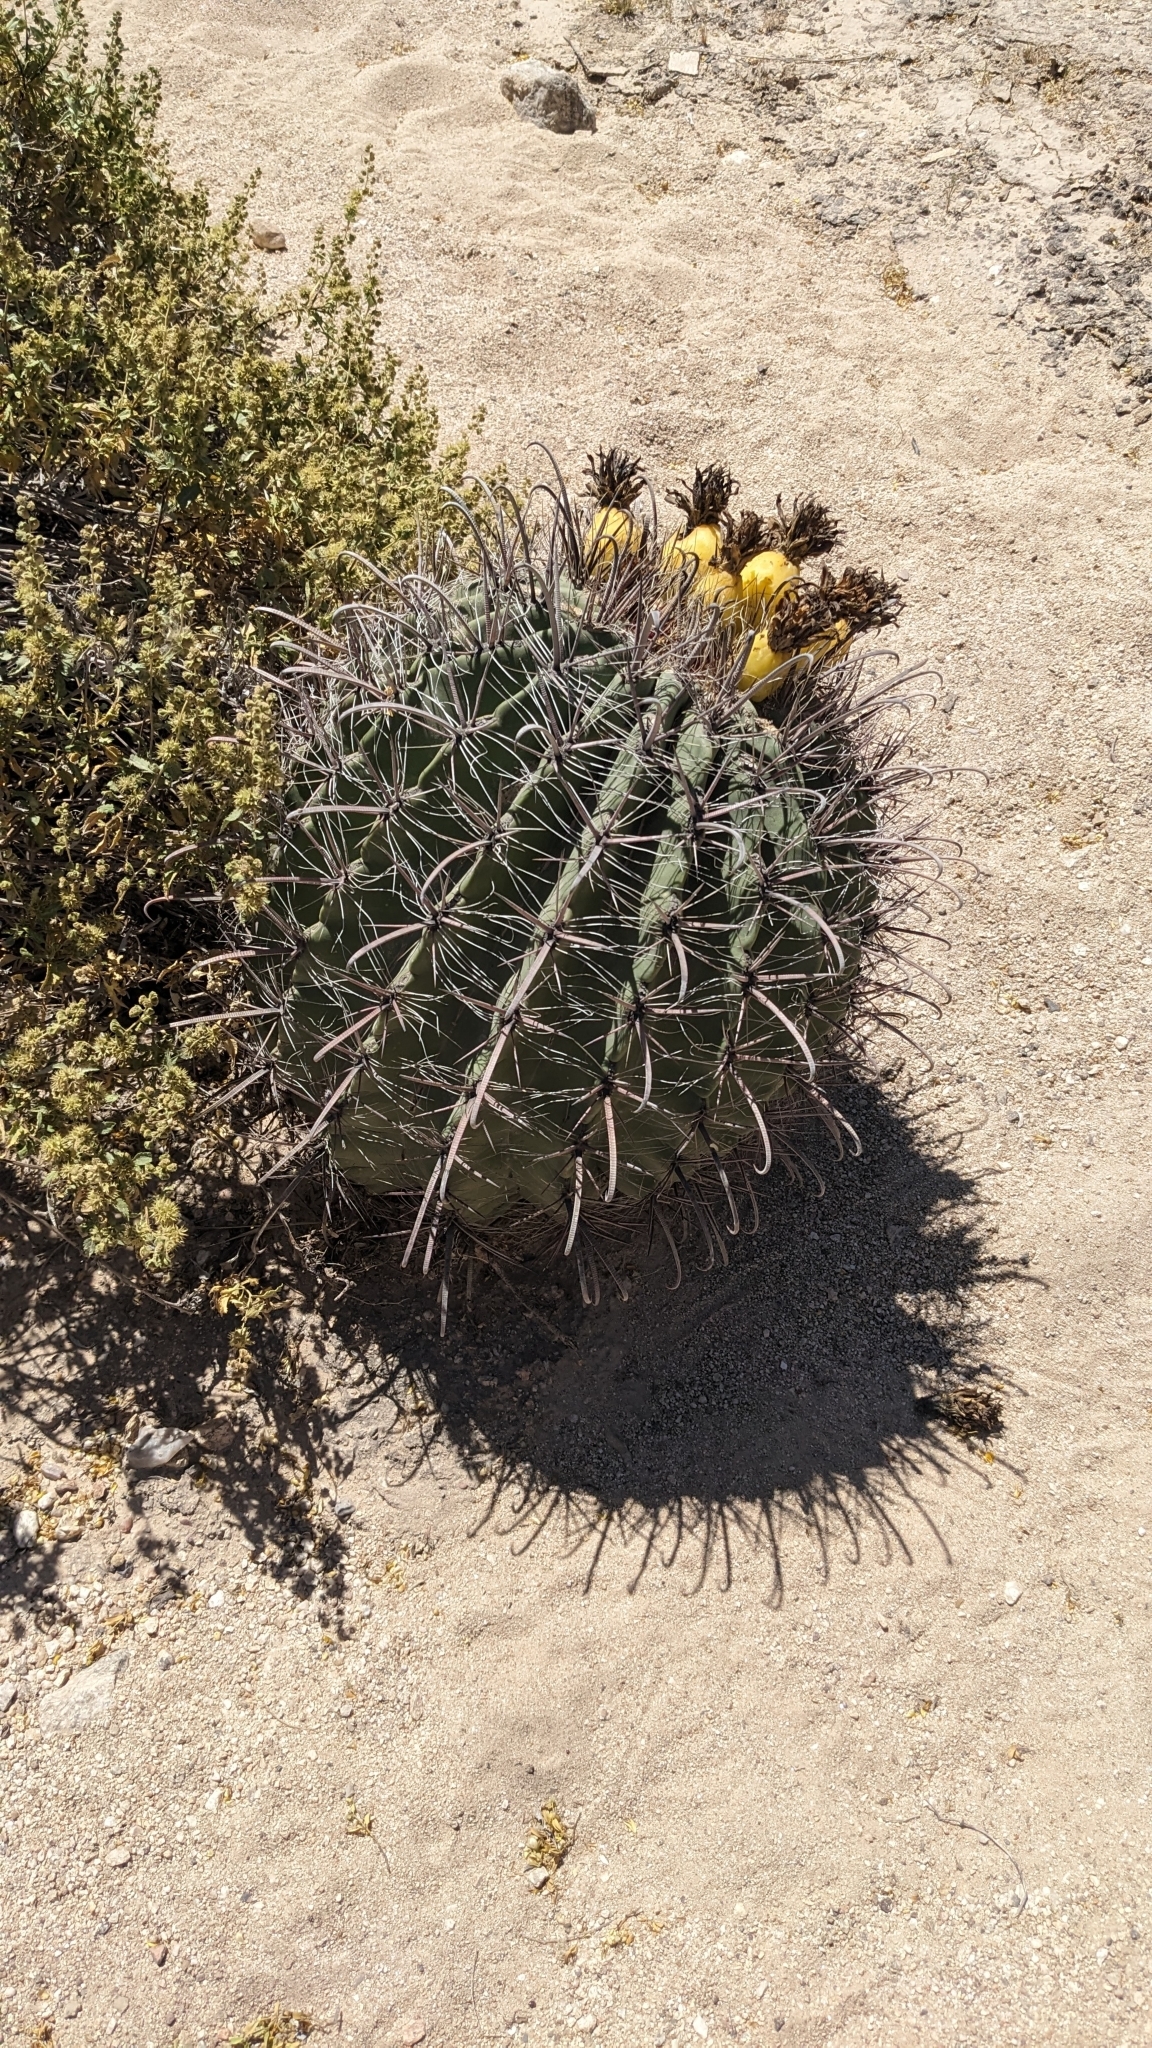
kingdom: Plantae
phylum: Tracheophyta
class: Magnoliopsida
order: Caryophyllales
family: Cactaceae
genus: Ferocactus
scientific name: Ferocactus wislizeni
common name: Candy barrel cactus
